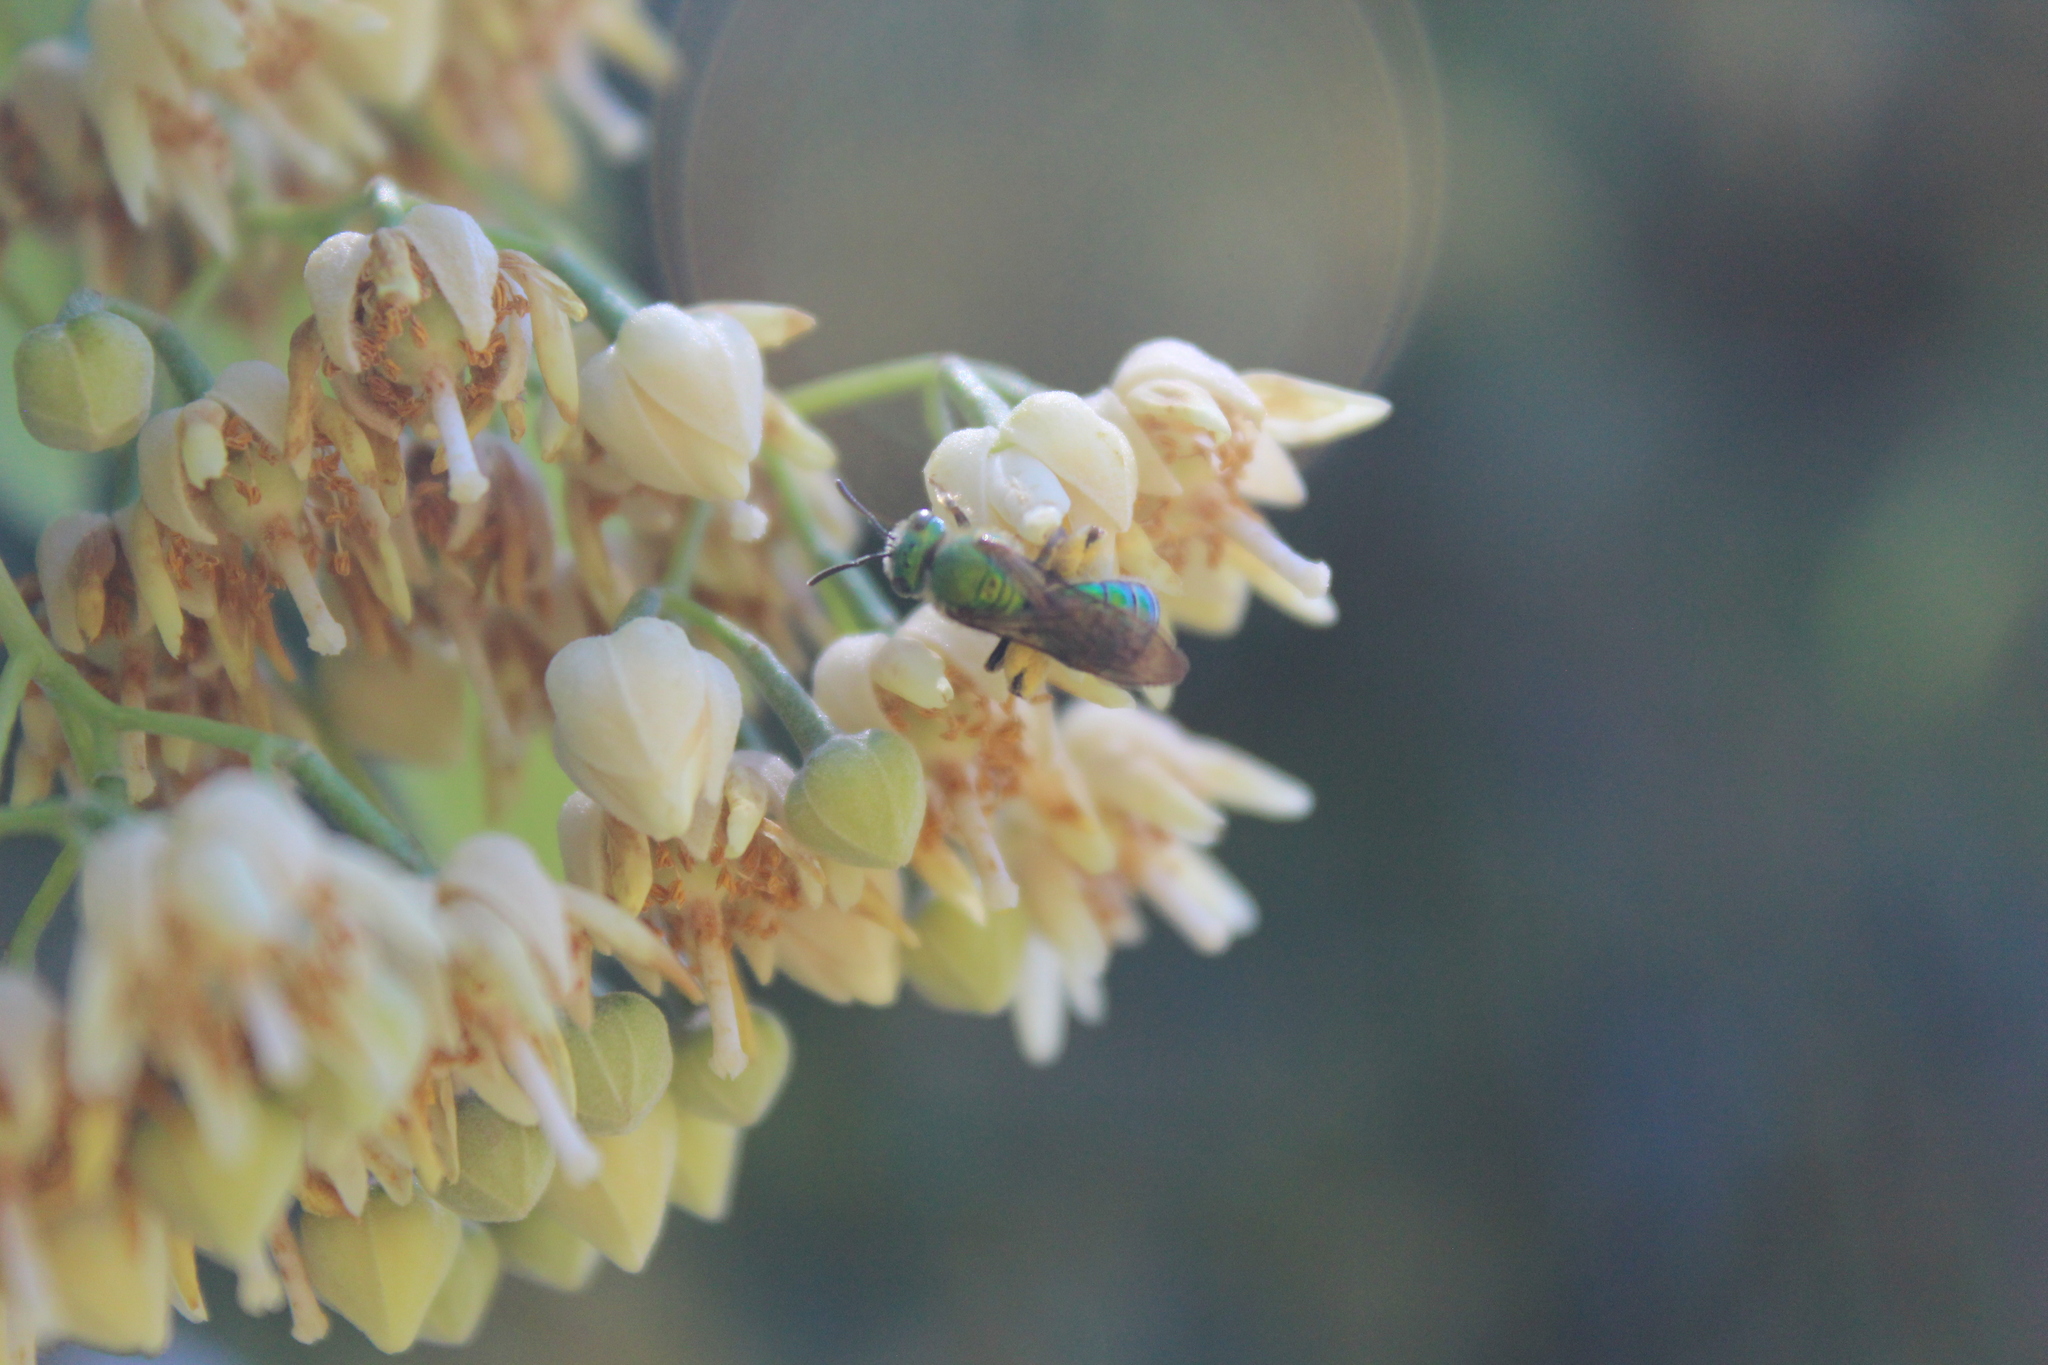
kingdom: Animalia
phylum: Arthropoda
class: Insecta
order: Hymenoptera
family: Halictidae
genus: Augochlora
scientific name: Augochlora pura
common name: Pure green sweat bee
